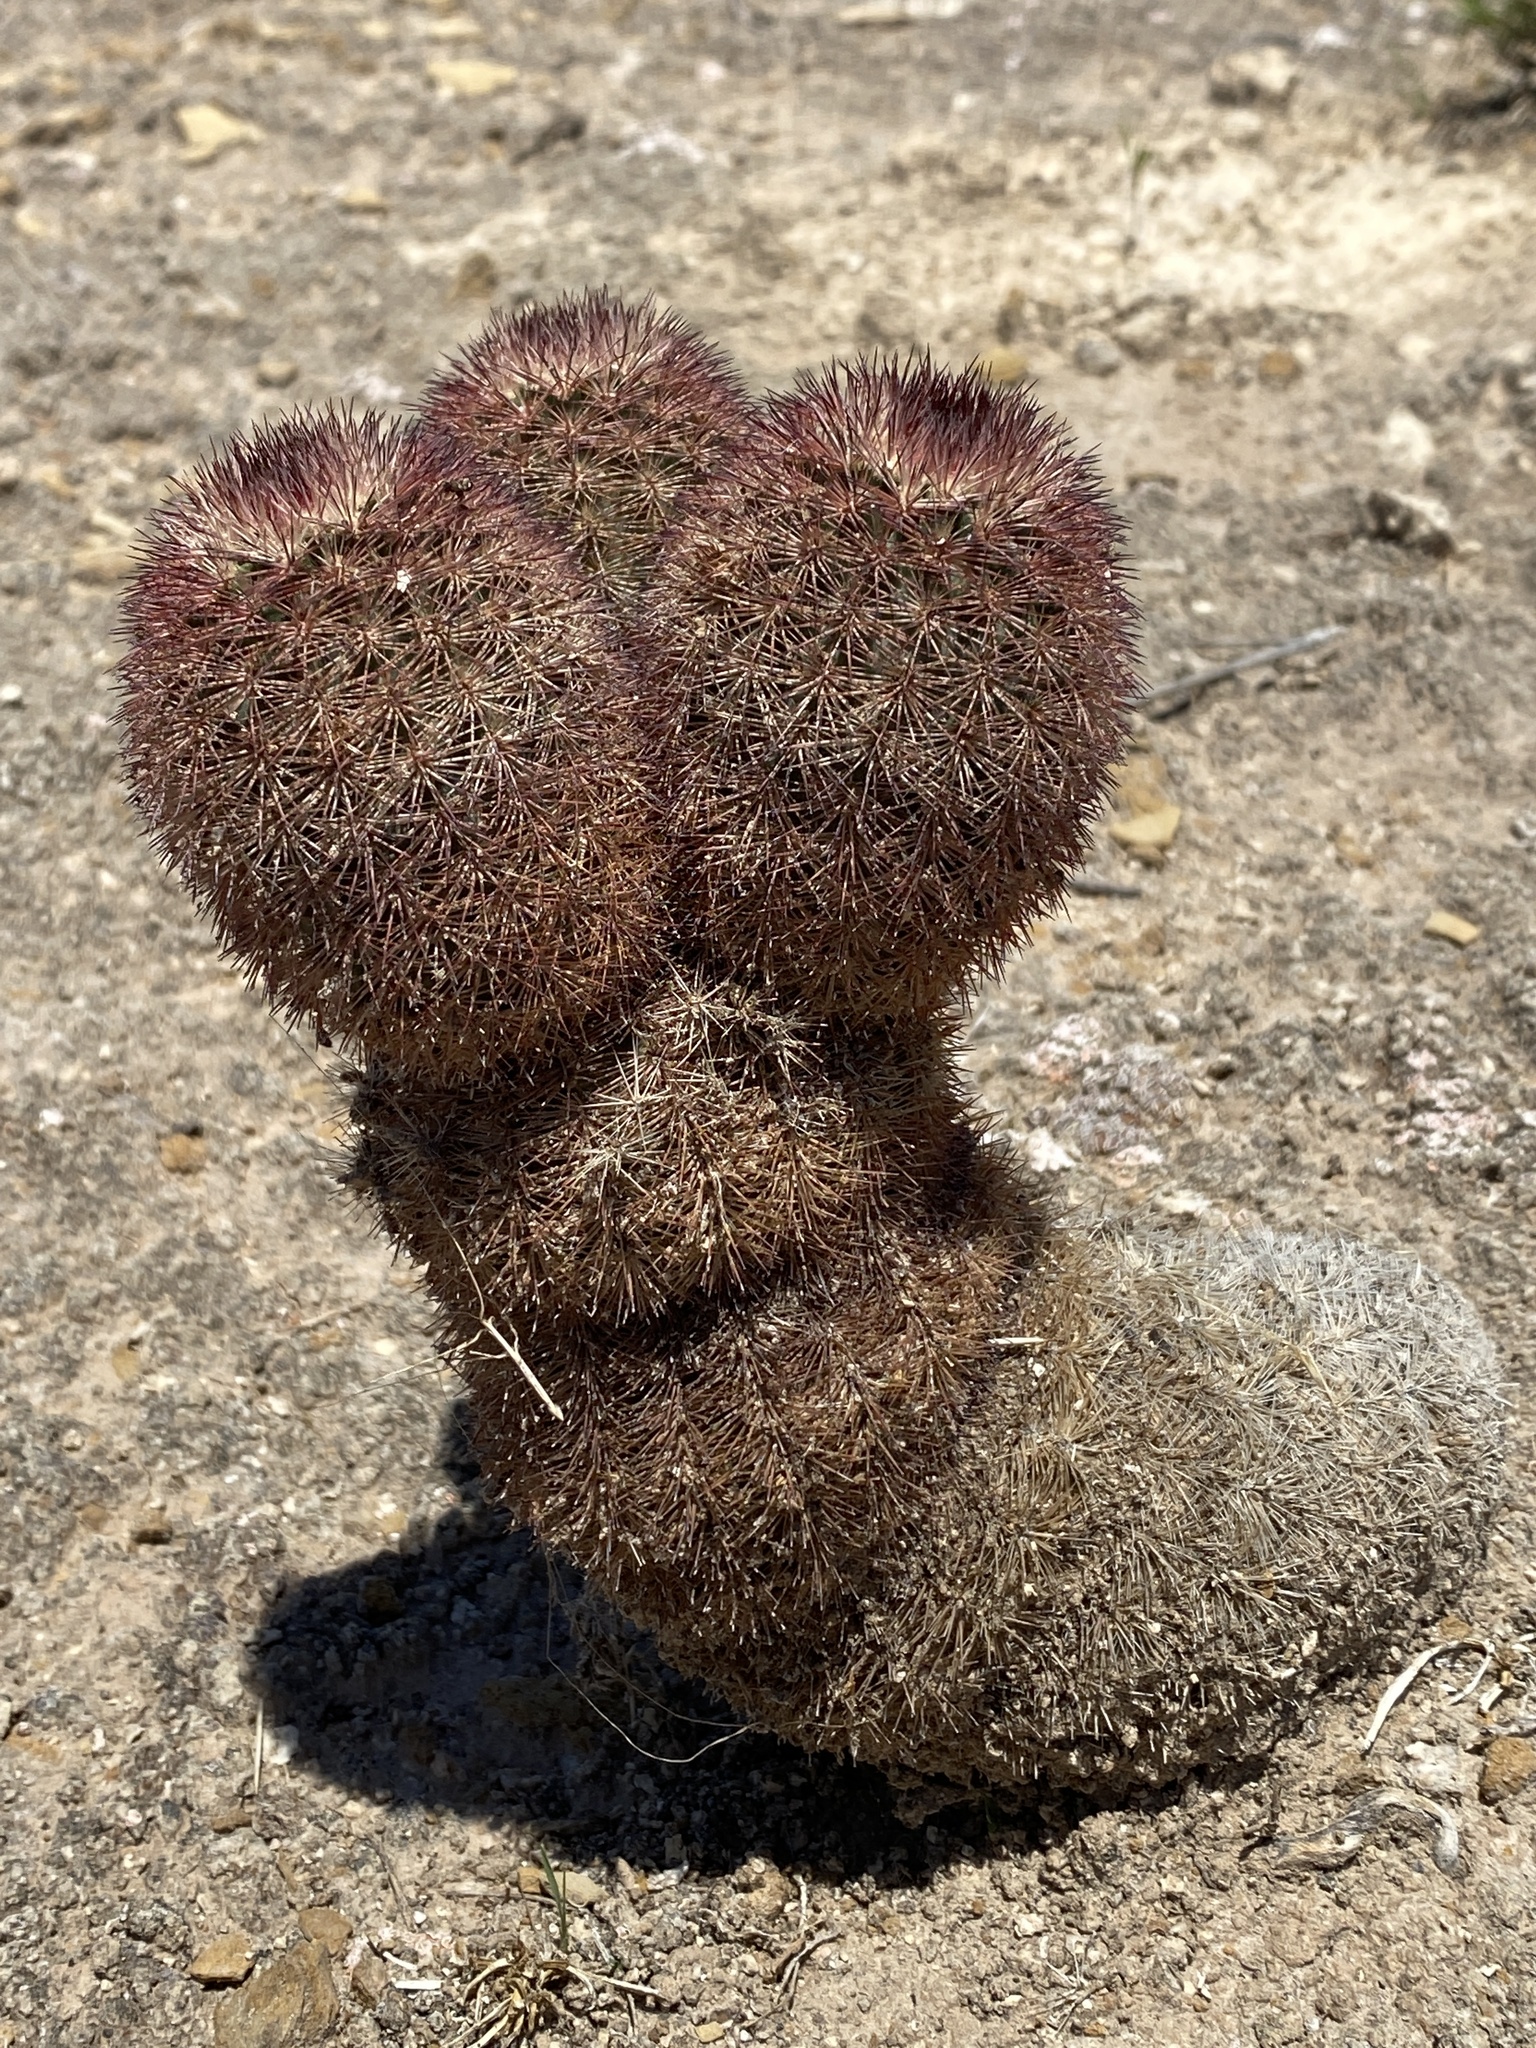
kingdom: Plantae
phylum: Tracheophyta
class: Magnoliopsida
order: Caryophyllales
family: Cactaceae
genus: Echinocereus
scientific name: Echinocereus dasyacanthus
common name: Spiny hedgehog cactus
